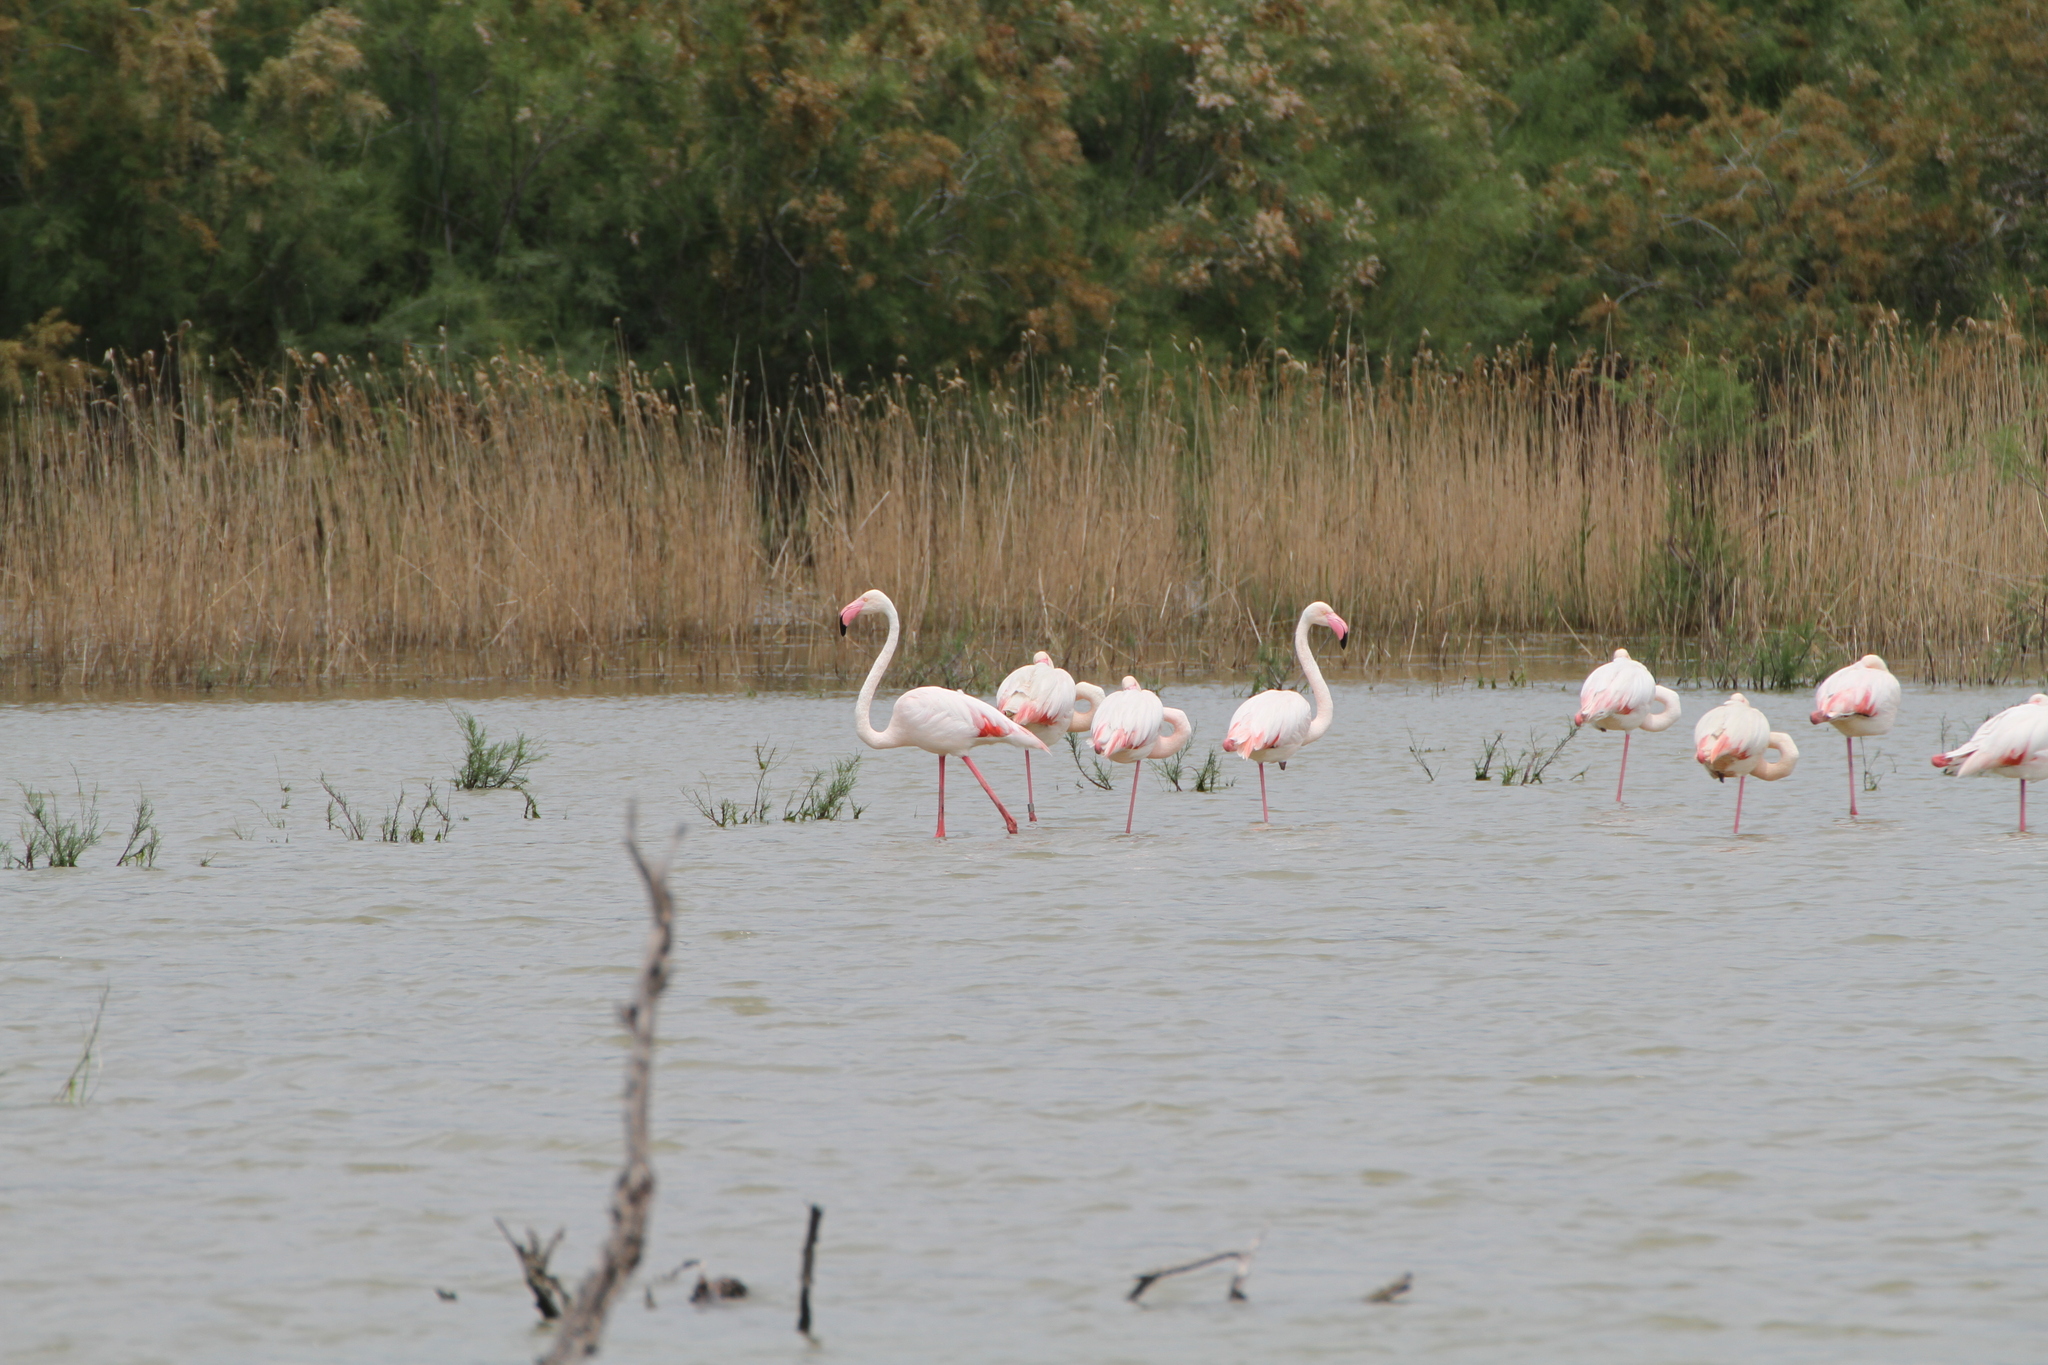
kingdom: Animalia
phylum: Chordata
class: Aves
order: Phoenicopteriformes
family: Phoenicopteridae
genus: Phoenicopterus
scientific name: Phoenicopterus roseus
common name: Greater flamingo
